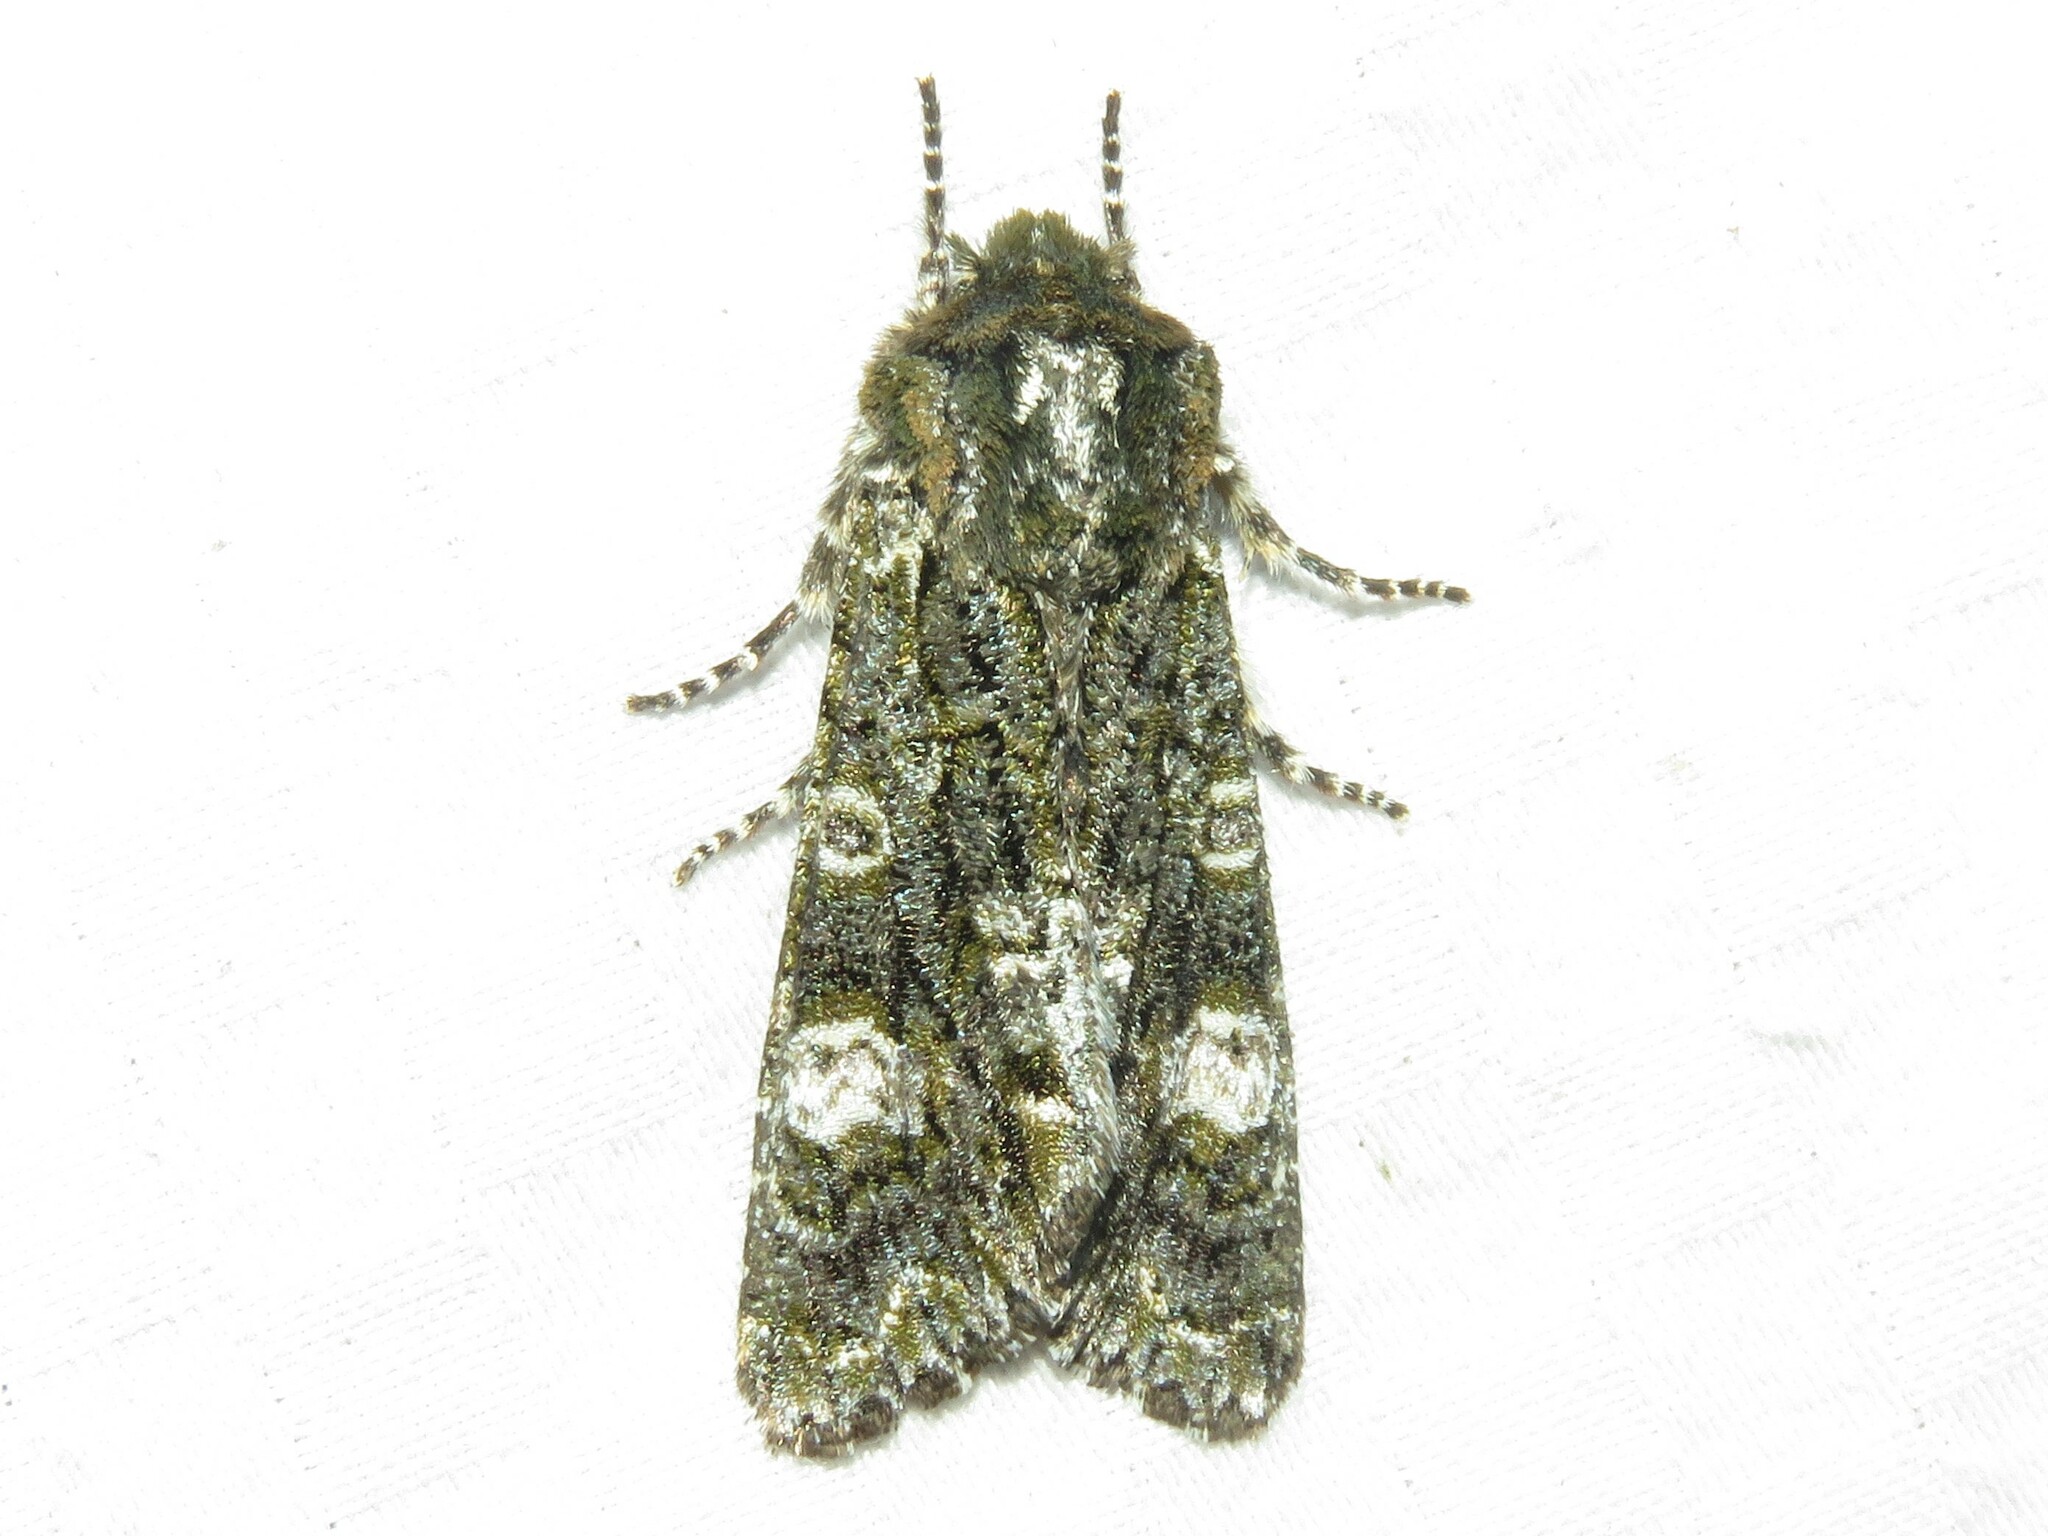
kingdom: Animalia
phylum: Arthropoda
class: Insecta
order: Lepidoptera
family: Noctuidae
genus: Psaphida
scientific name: Psaphida grotei
